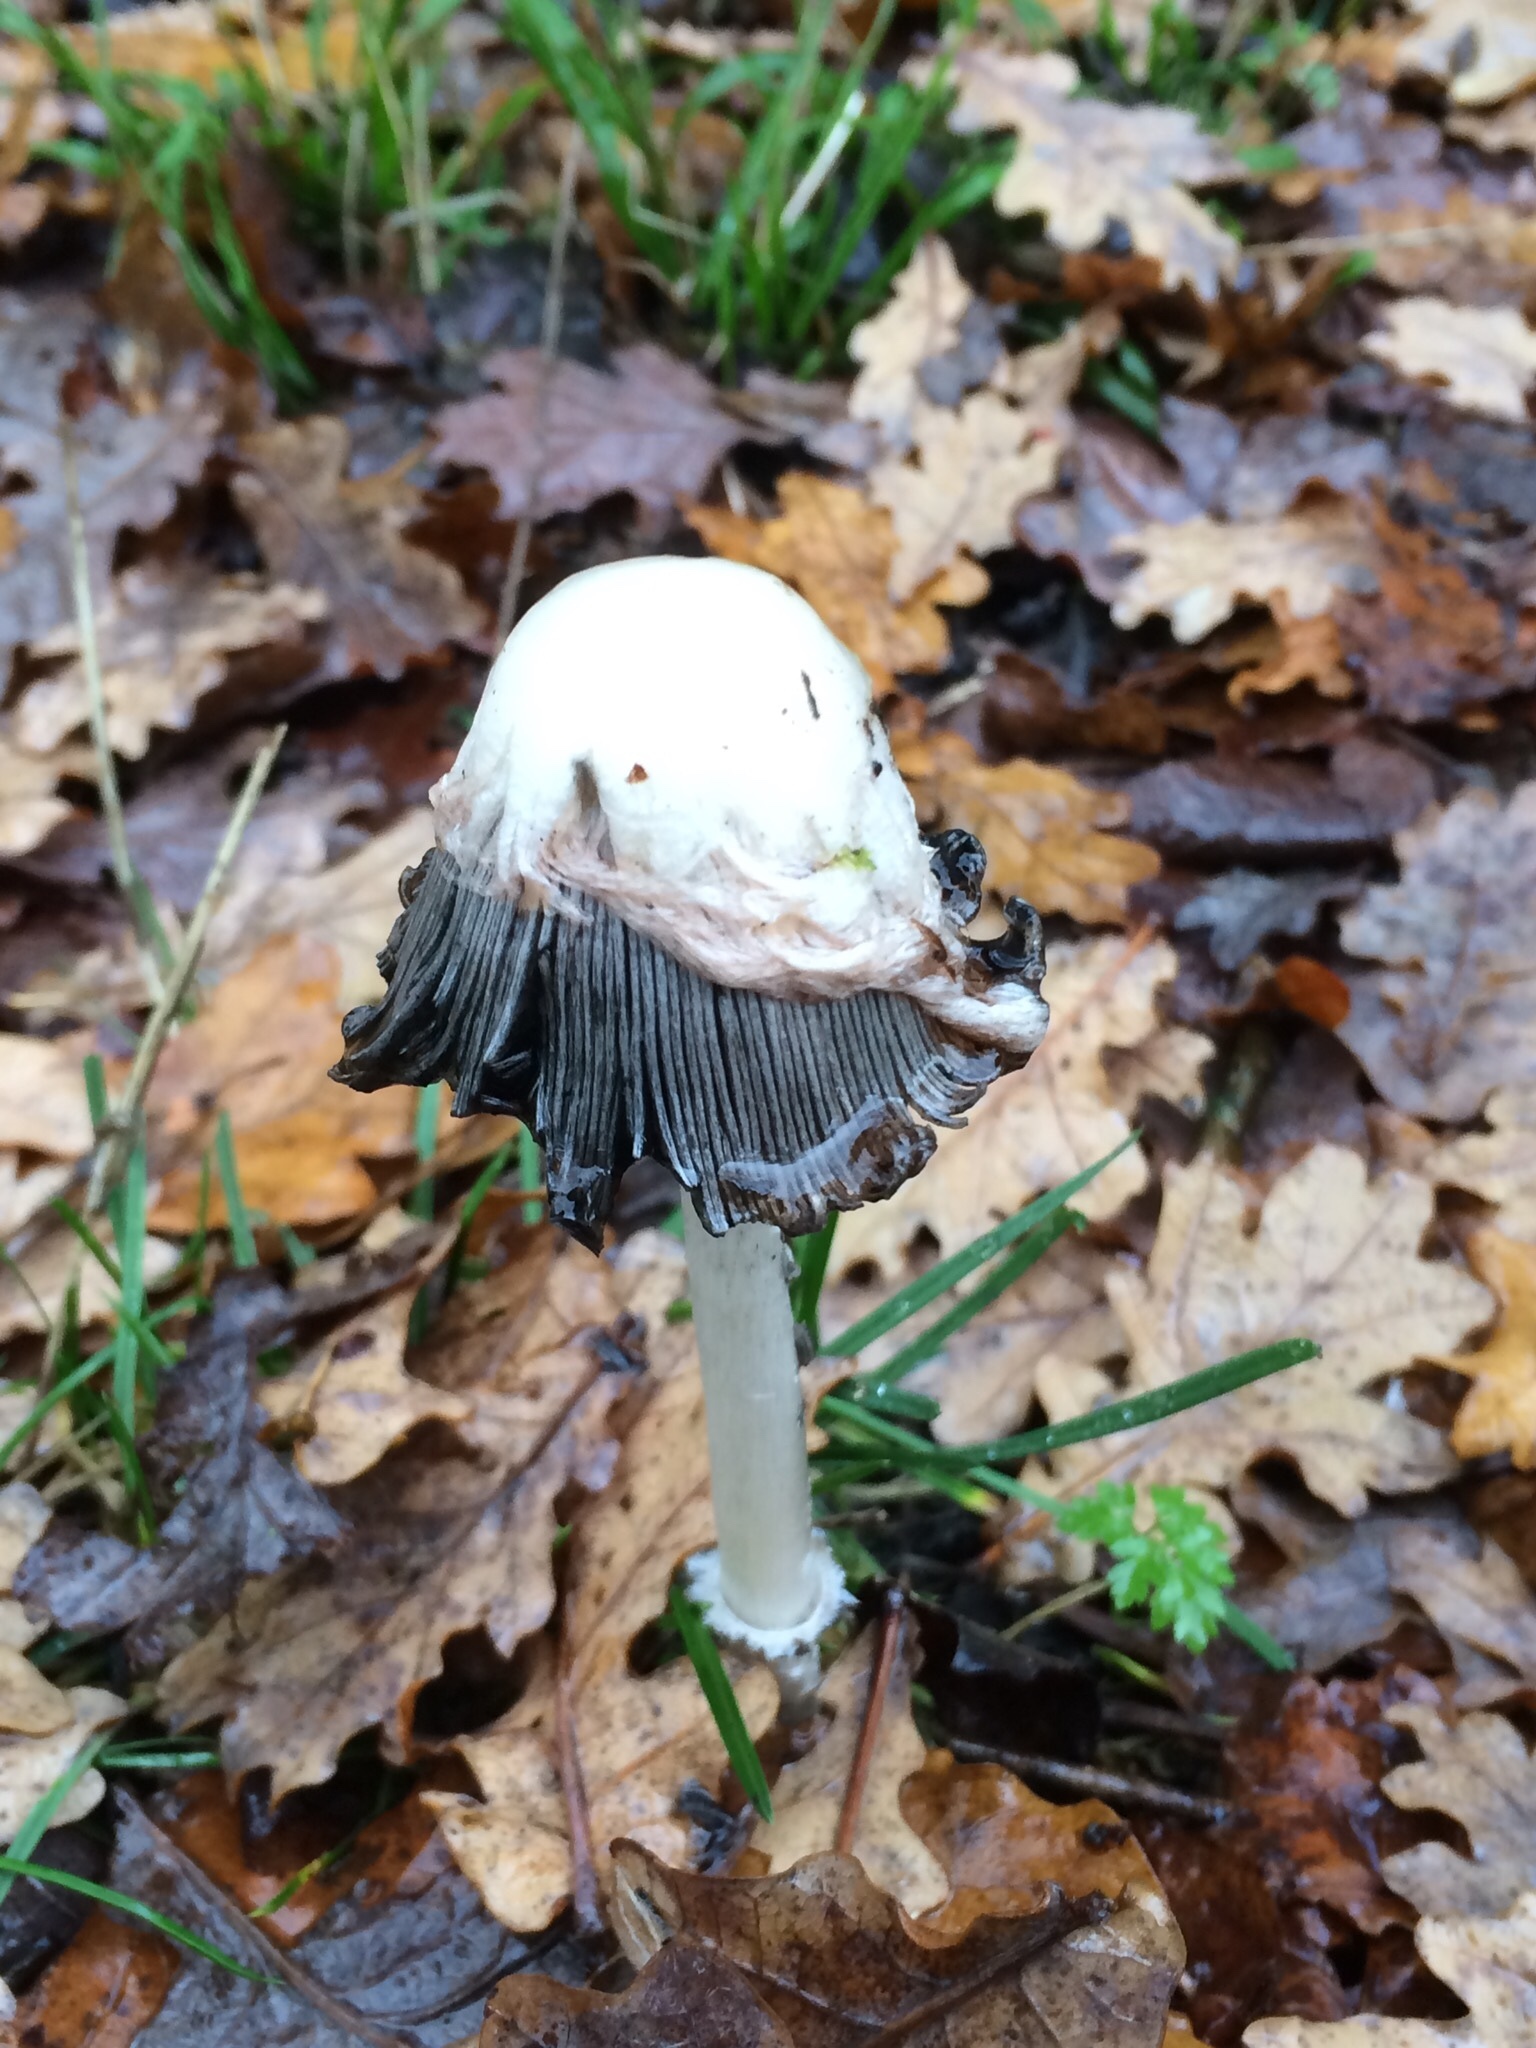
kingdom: Fungi
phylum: Basidiomycota
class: Agaricomycetes
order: Agaricales
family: Agaricaceae
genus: Coprinus
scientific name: Coprinus comatus
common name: Lawyer's wig
